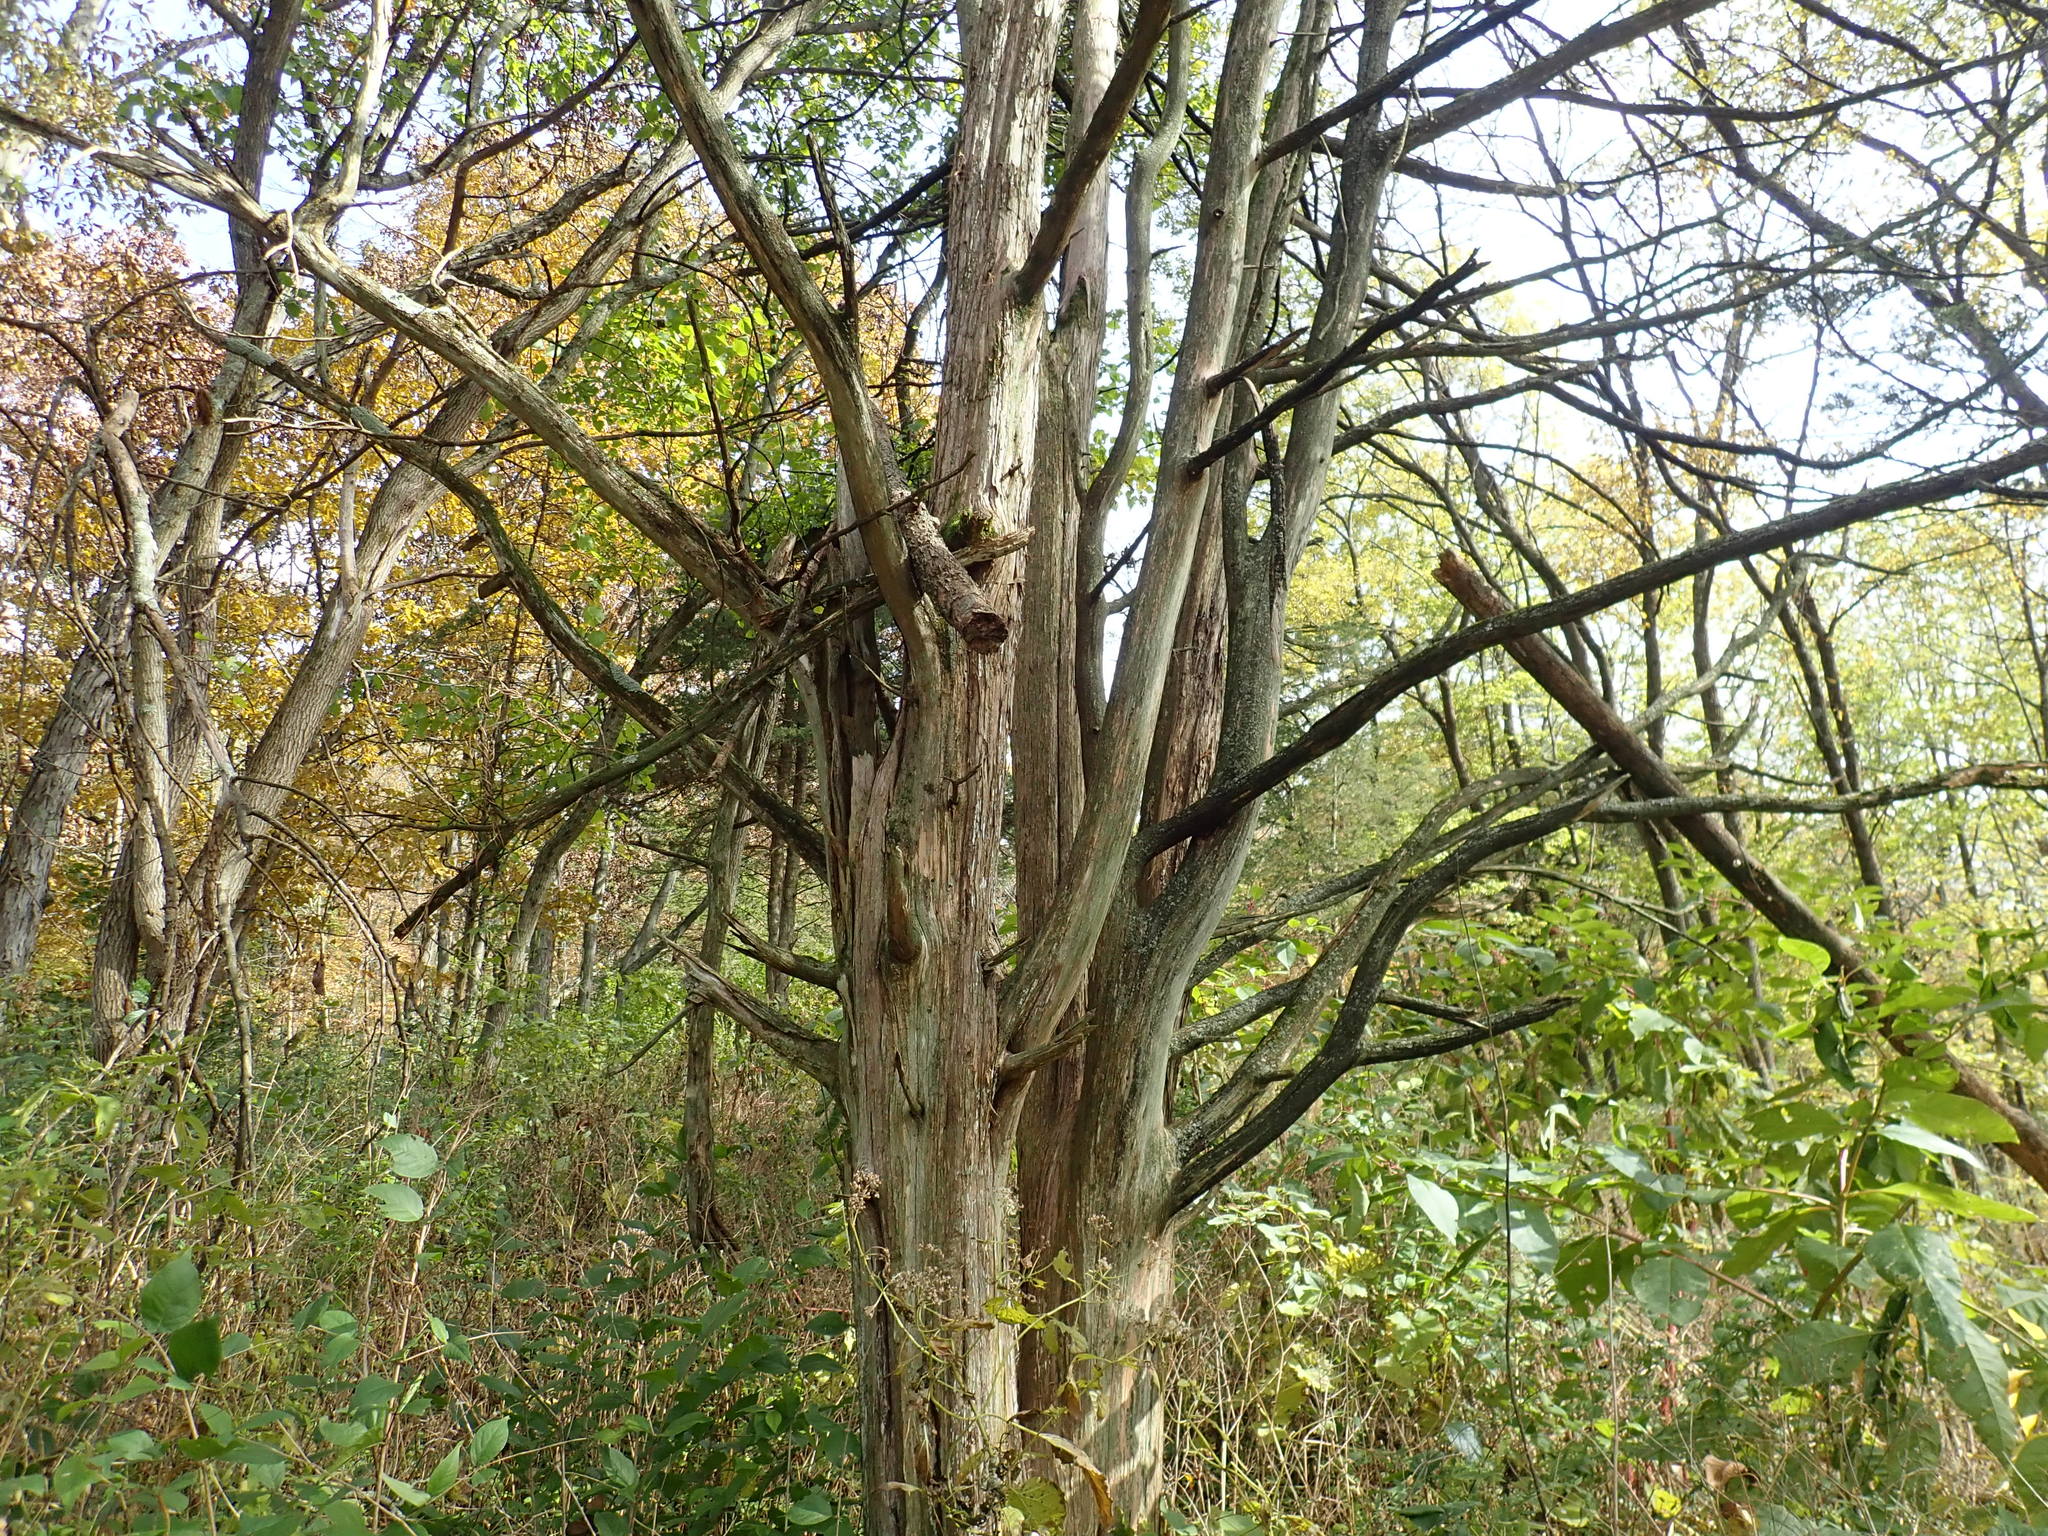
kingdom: Plantae
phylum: Tracheophyta
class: Pinopsida
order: Pinales
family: Cupressaceae
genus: Juniperus
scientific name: Juniperus virginiana
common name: Red juniper
